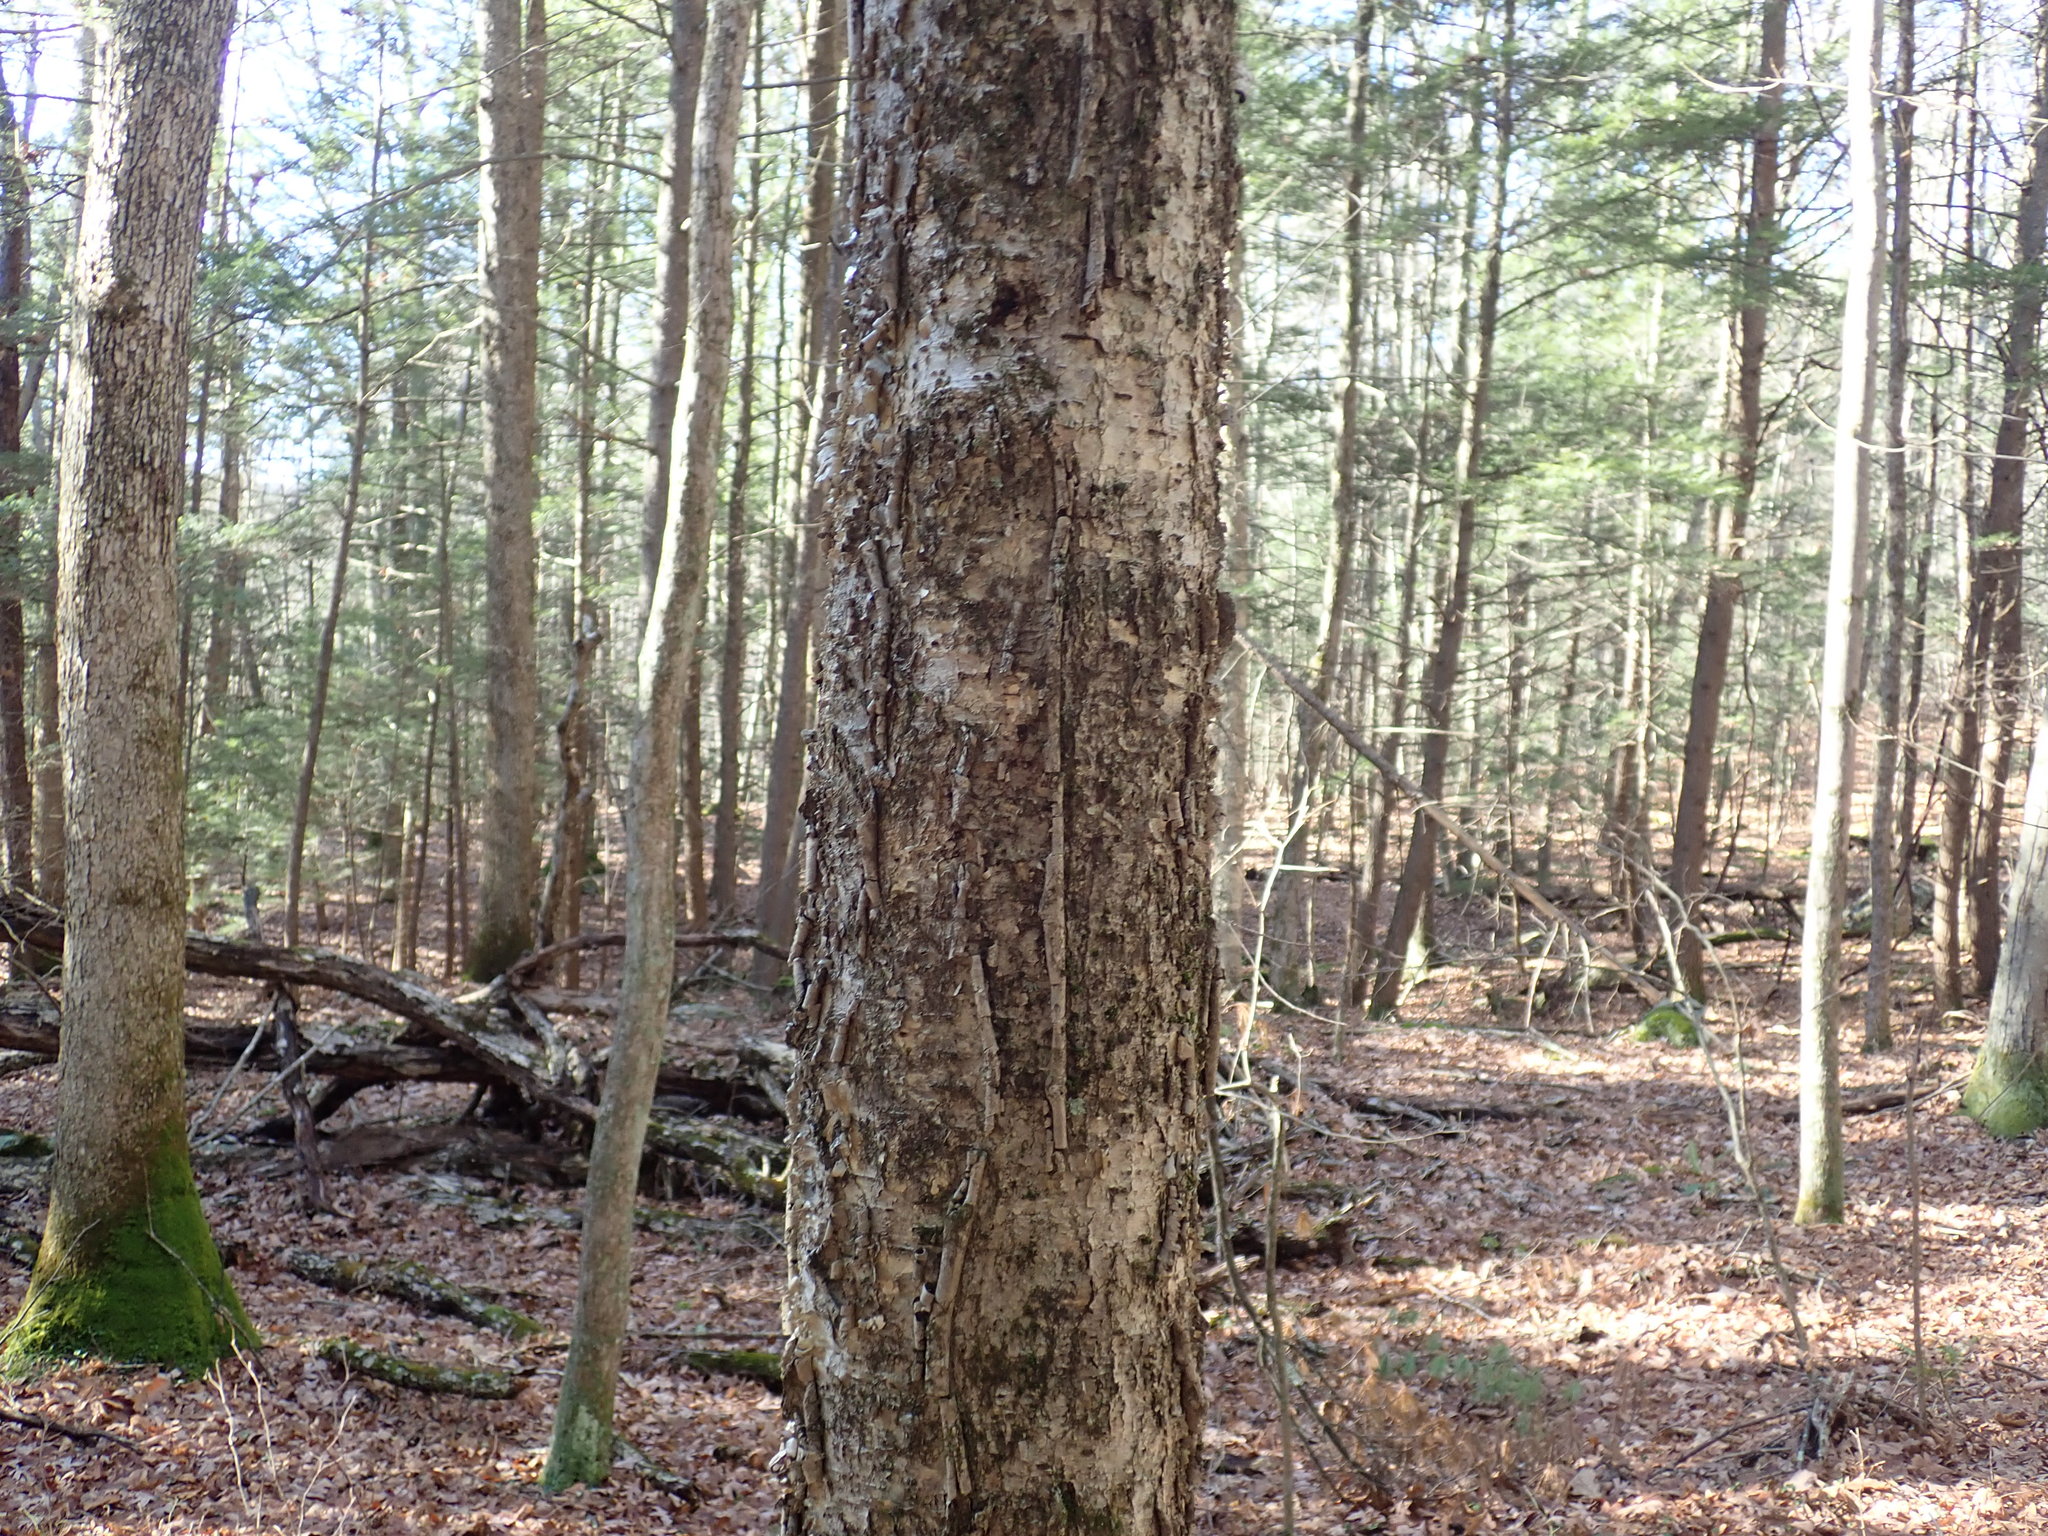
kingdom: Plantae
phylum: Tracheophyta
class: Magnoliopsida
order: Fagales
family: Betulaceae
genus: Betula
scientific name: Betula alleghaniensis
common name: Yellow birch
